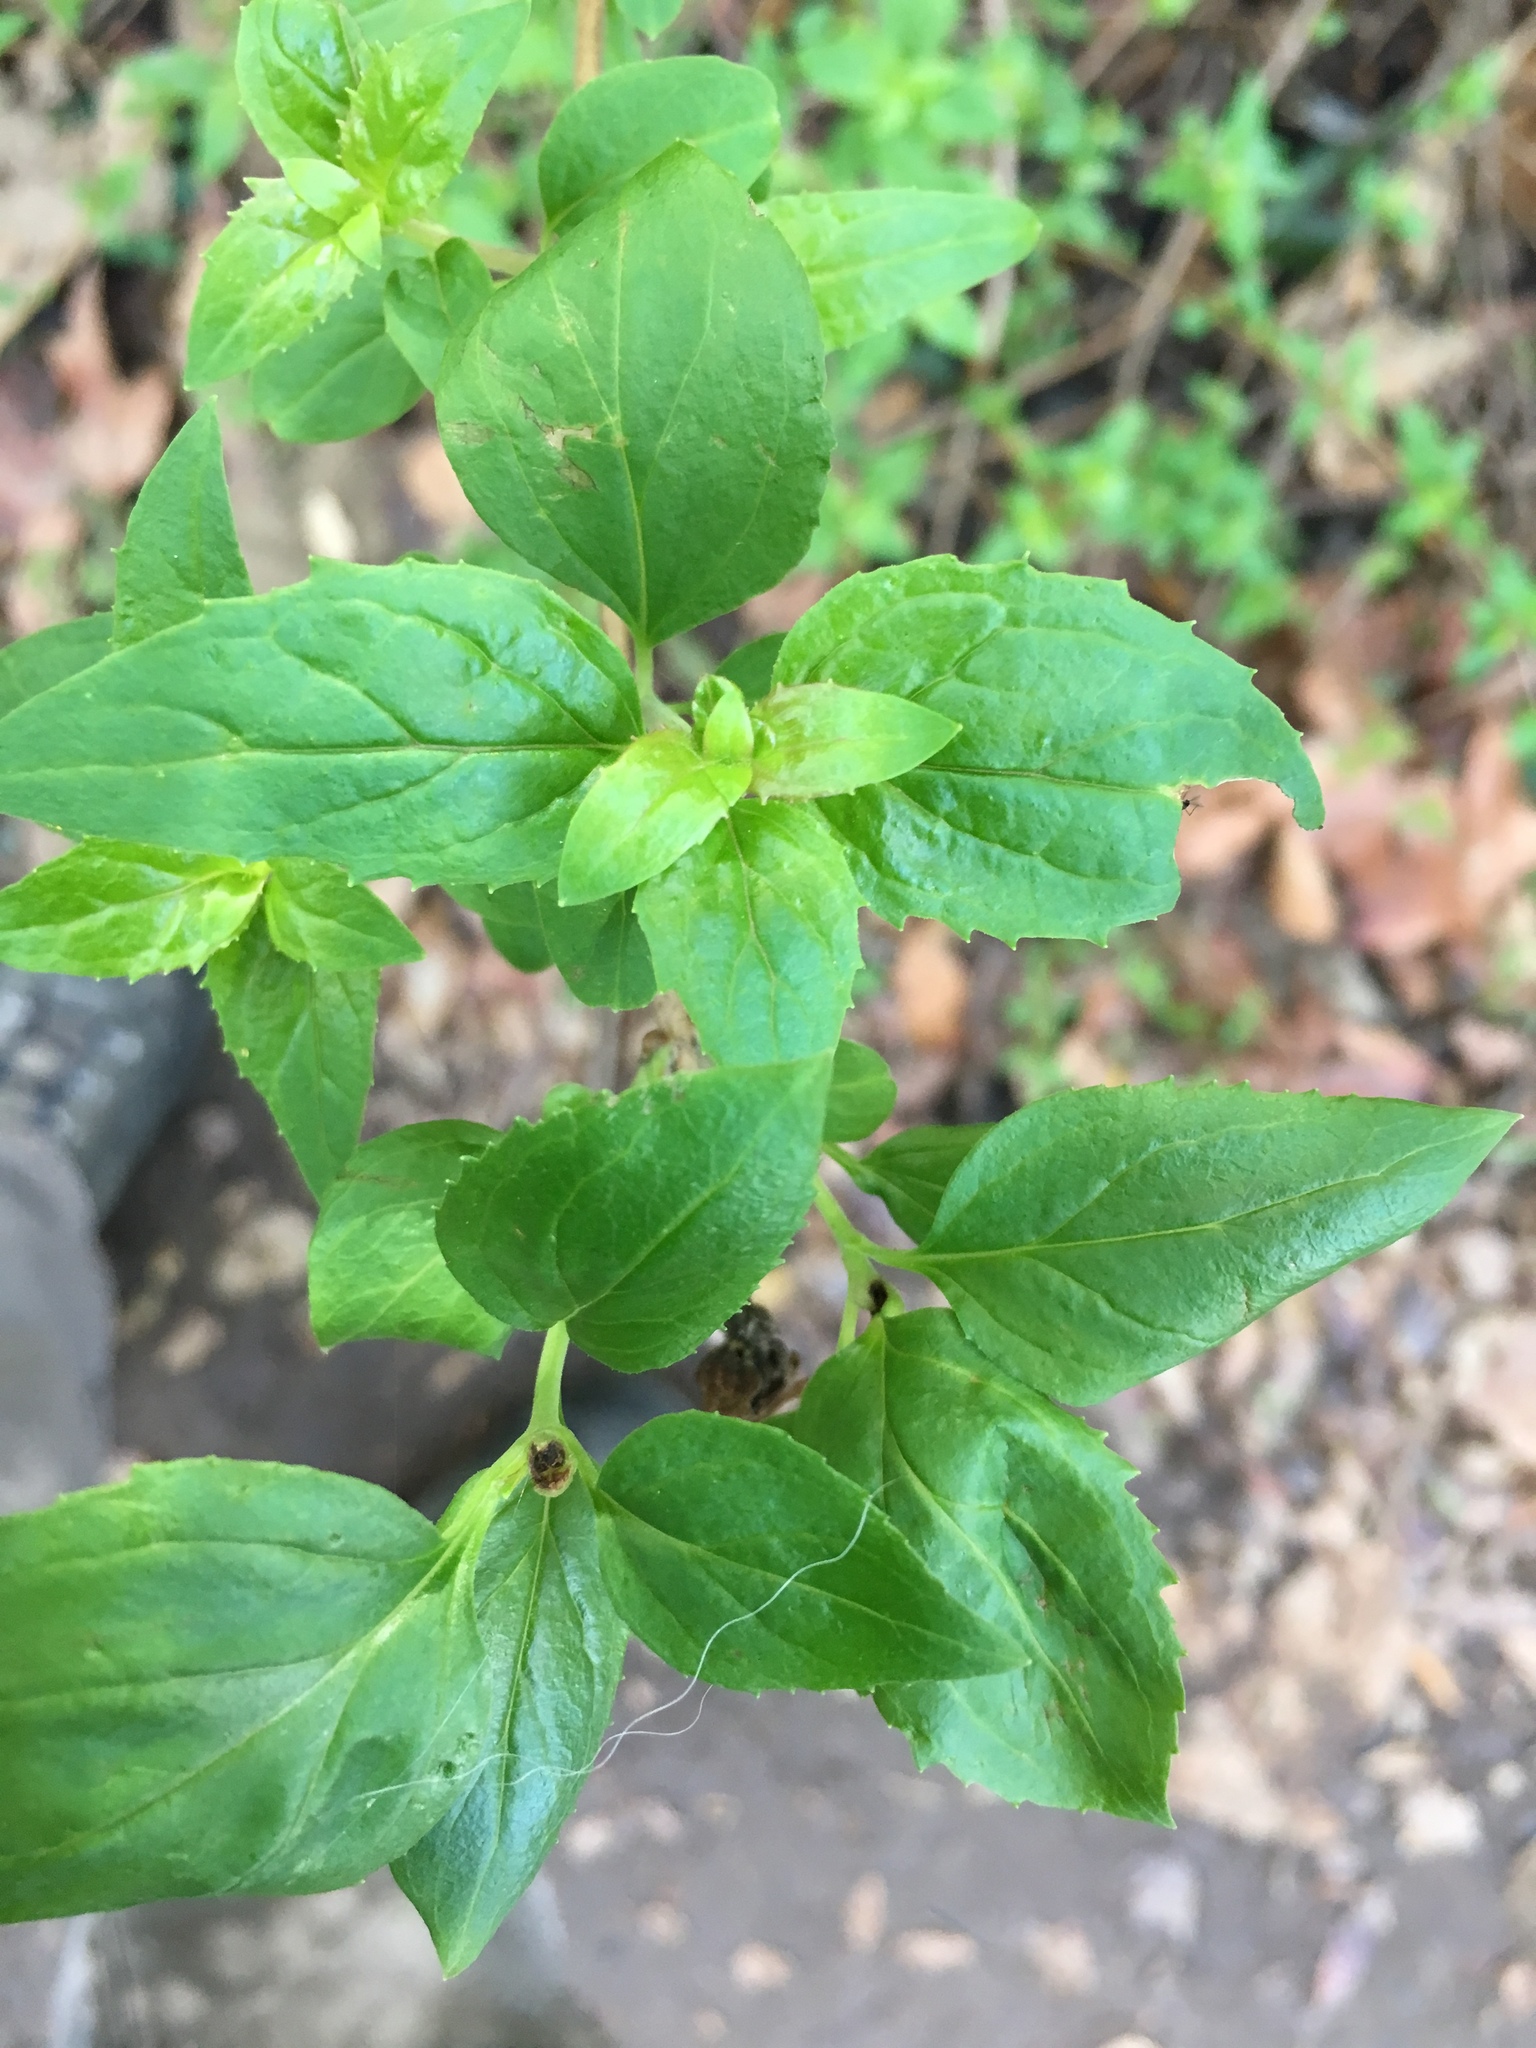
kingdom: Plantae
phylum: Tracheophyta
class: Magnoliopsida
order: Lamiales
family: Plantaginaceae
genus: Keckiella
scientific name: Keckiella cordifolia
